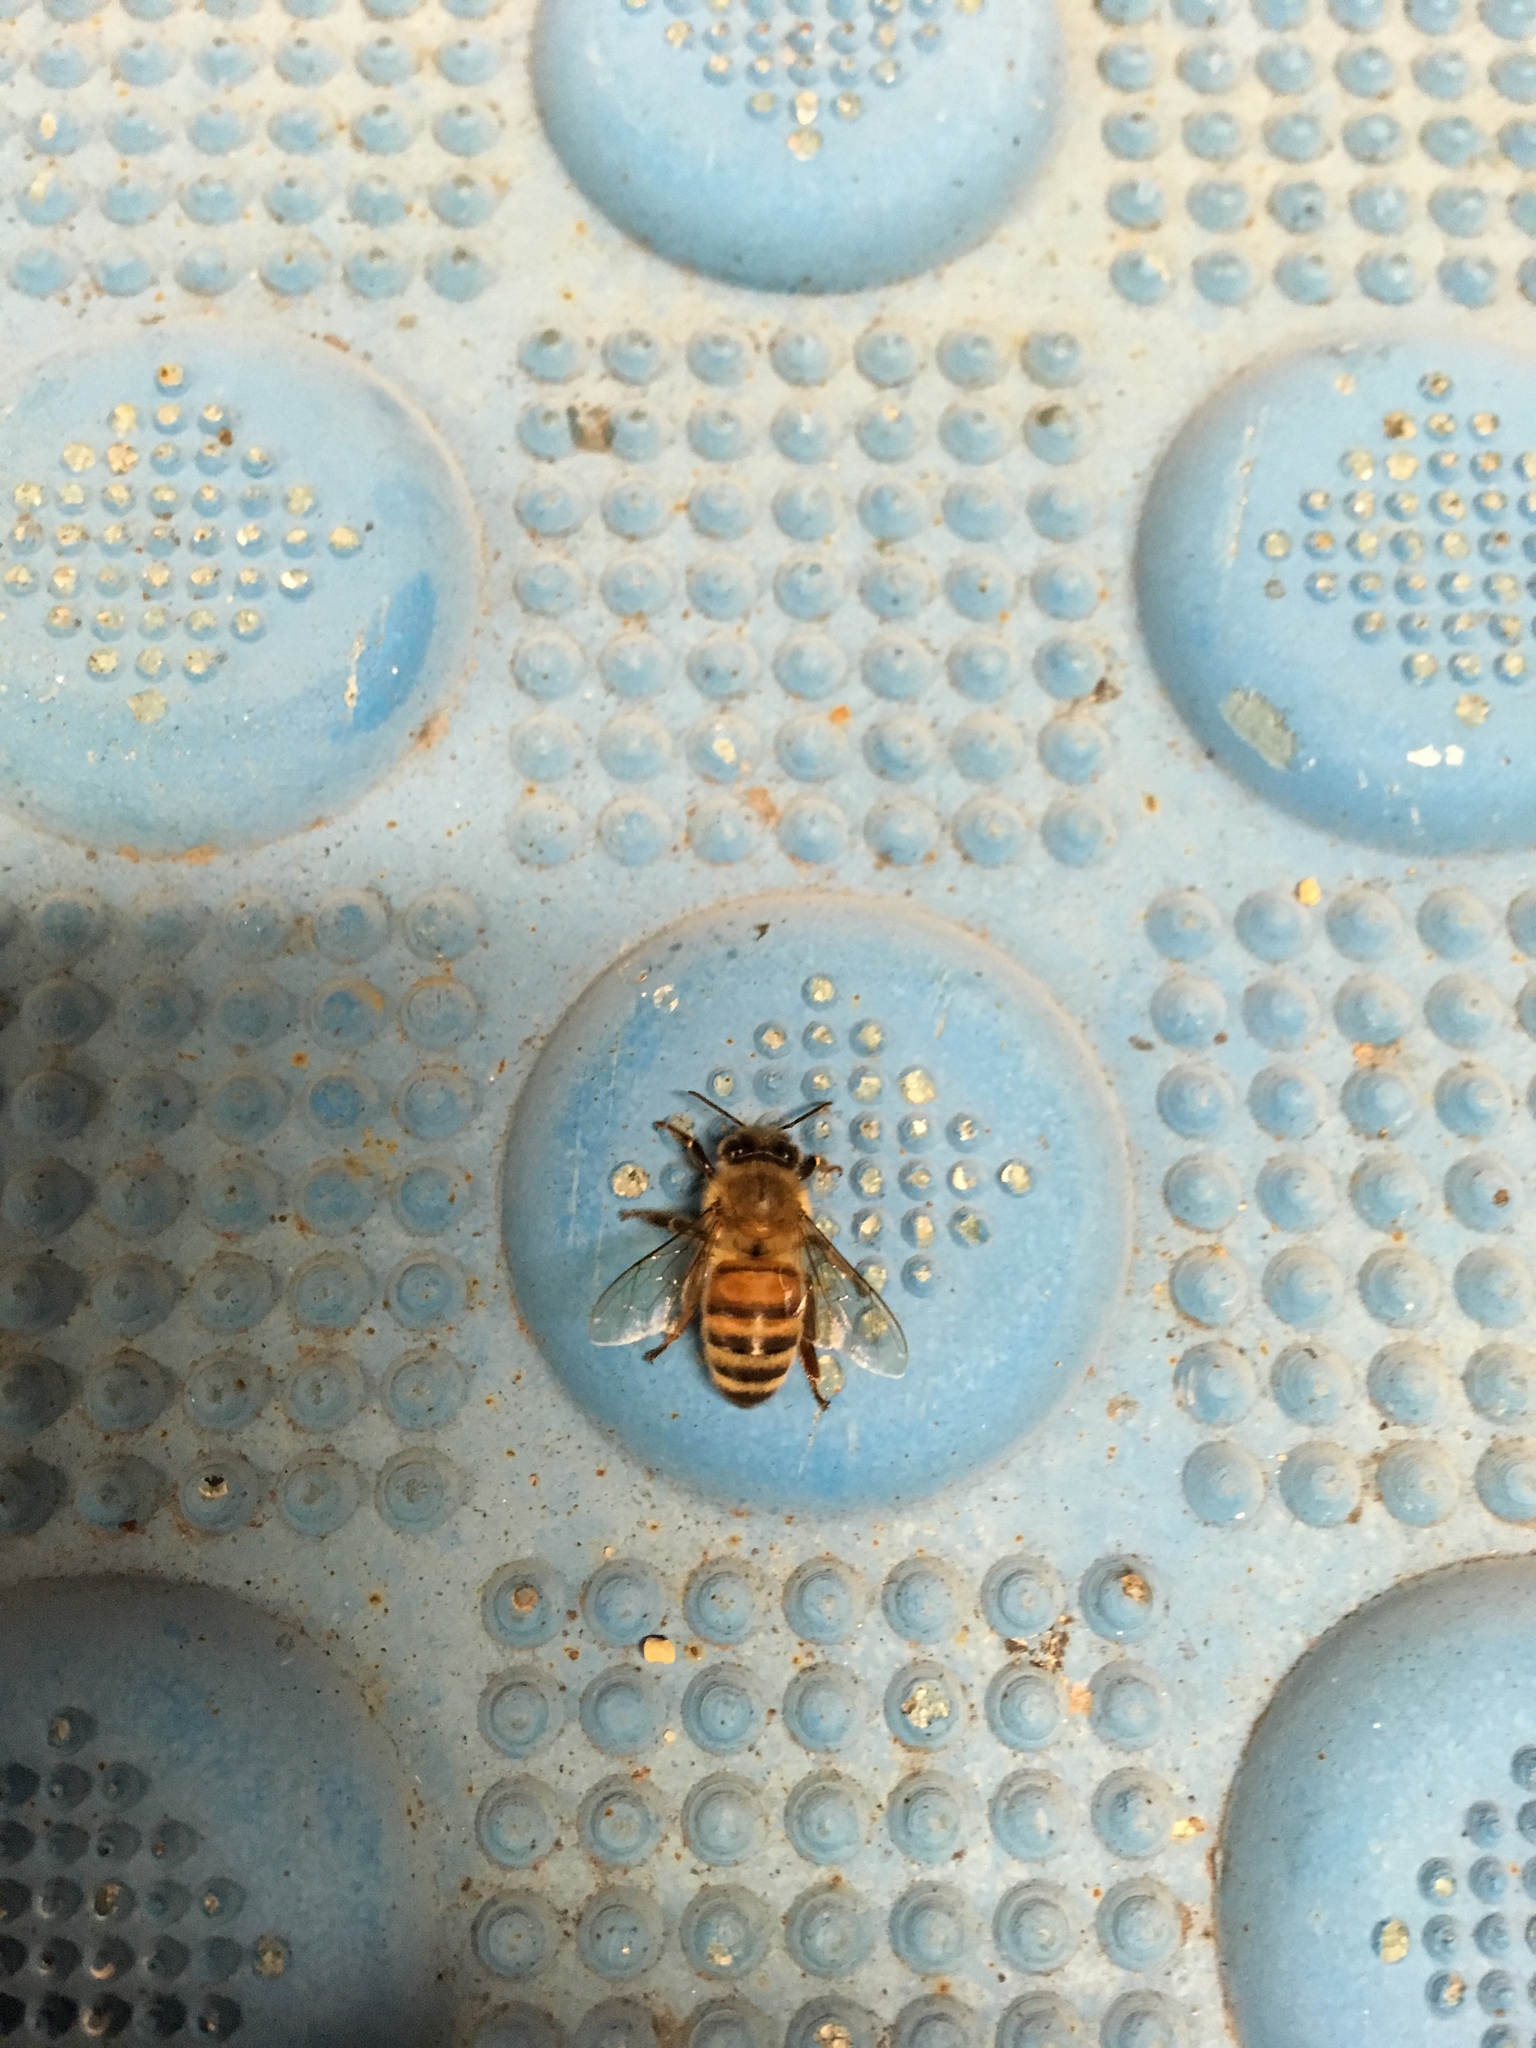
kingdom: Animalia
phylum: Arthropoda
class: Insecta
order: Hymenoptera
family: Apidae
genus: Apis
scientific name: Apis mellifera
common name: Honey bee
